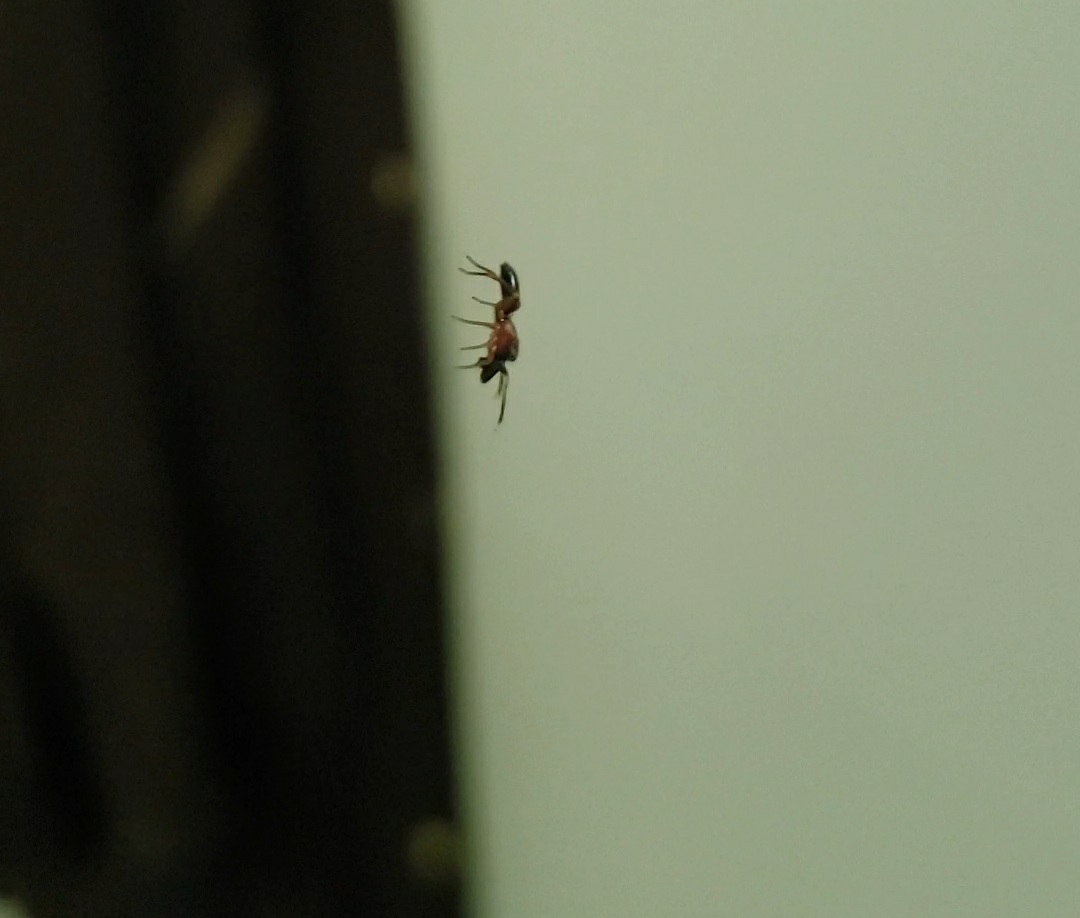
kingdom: Animalia
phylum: Arthropoda
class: Arachnida
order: Araneae
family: Salticidae
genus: Myrmarachne
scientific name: Myrmarachne formicaria
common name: Ant mimic jumping spider
